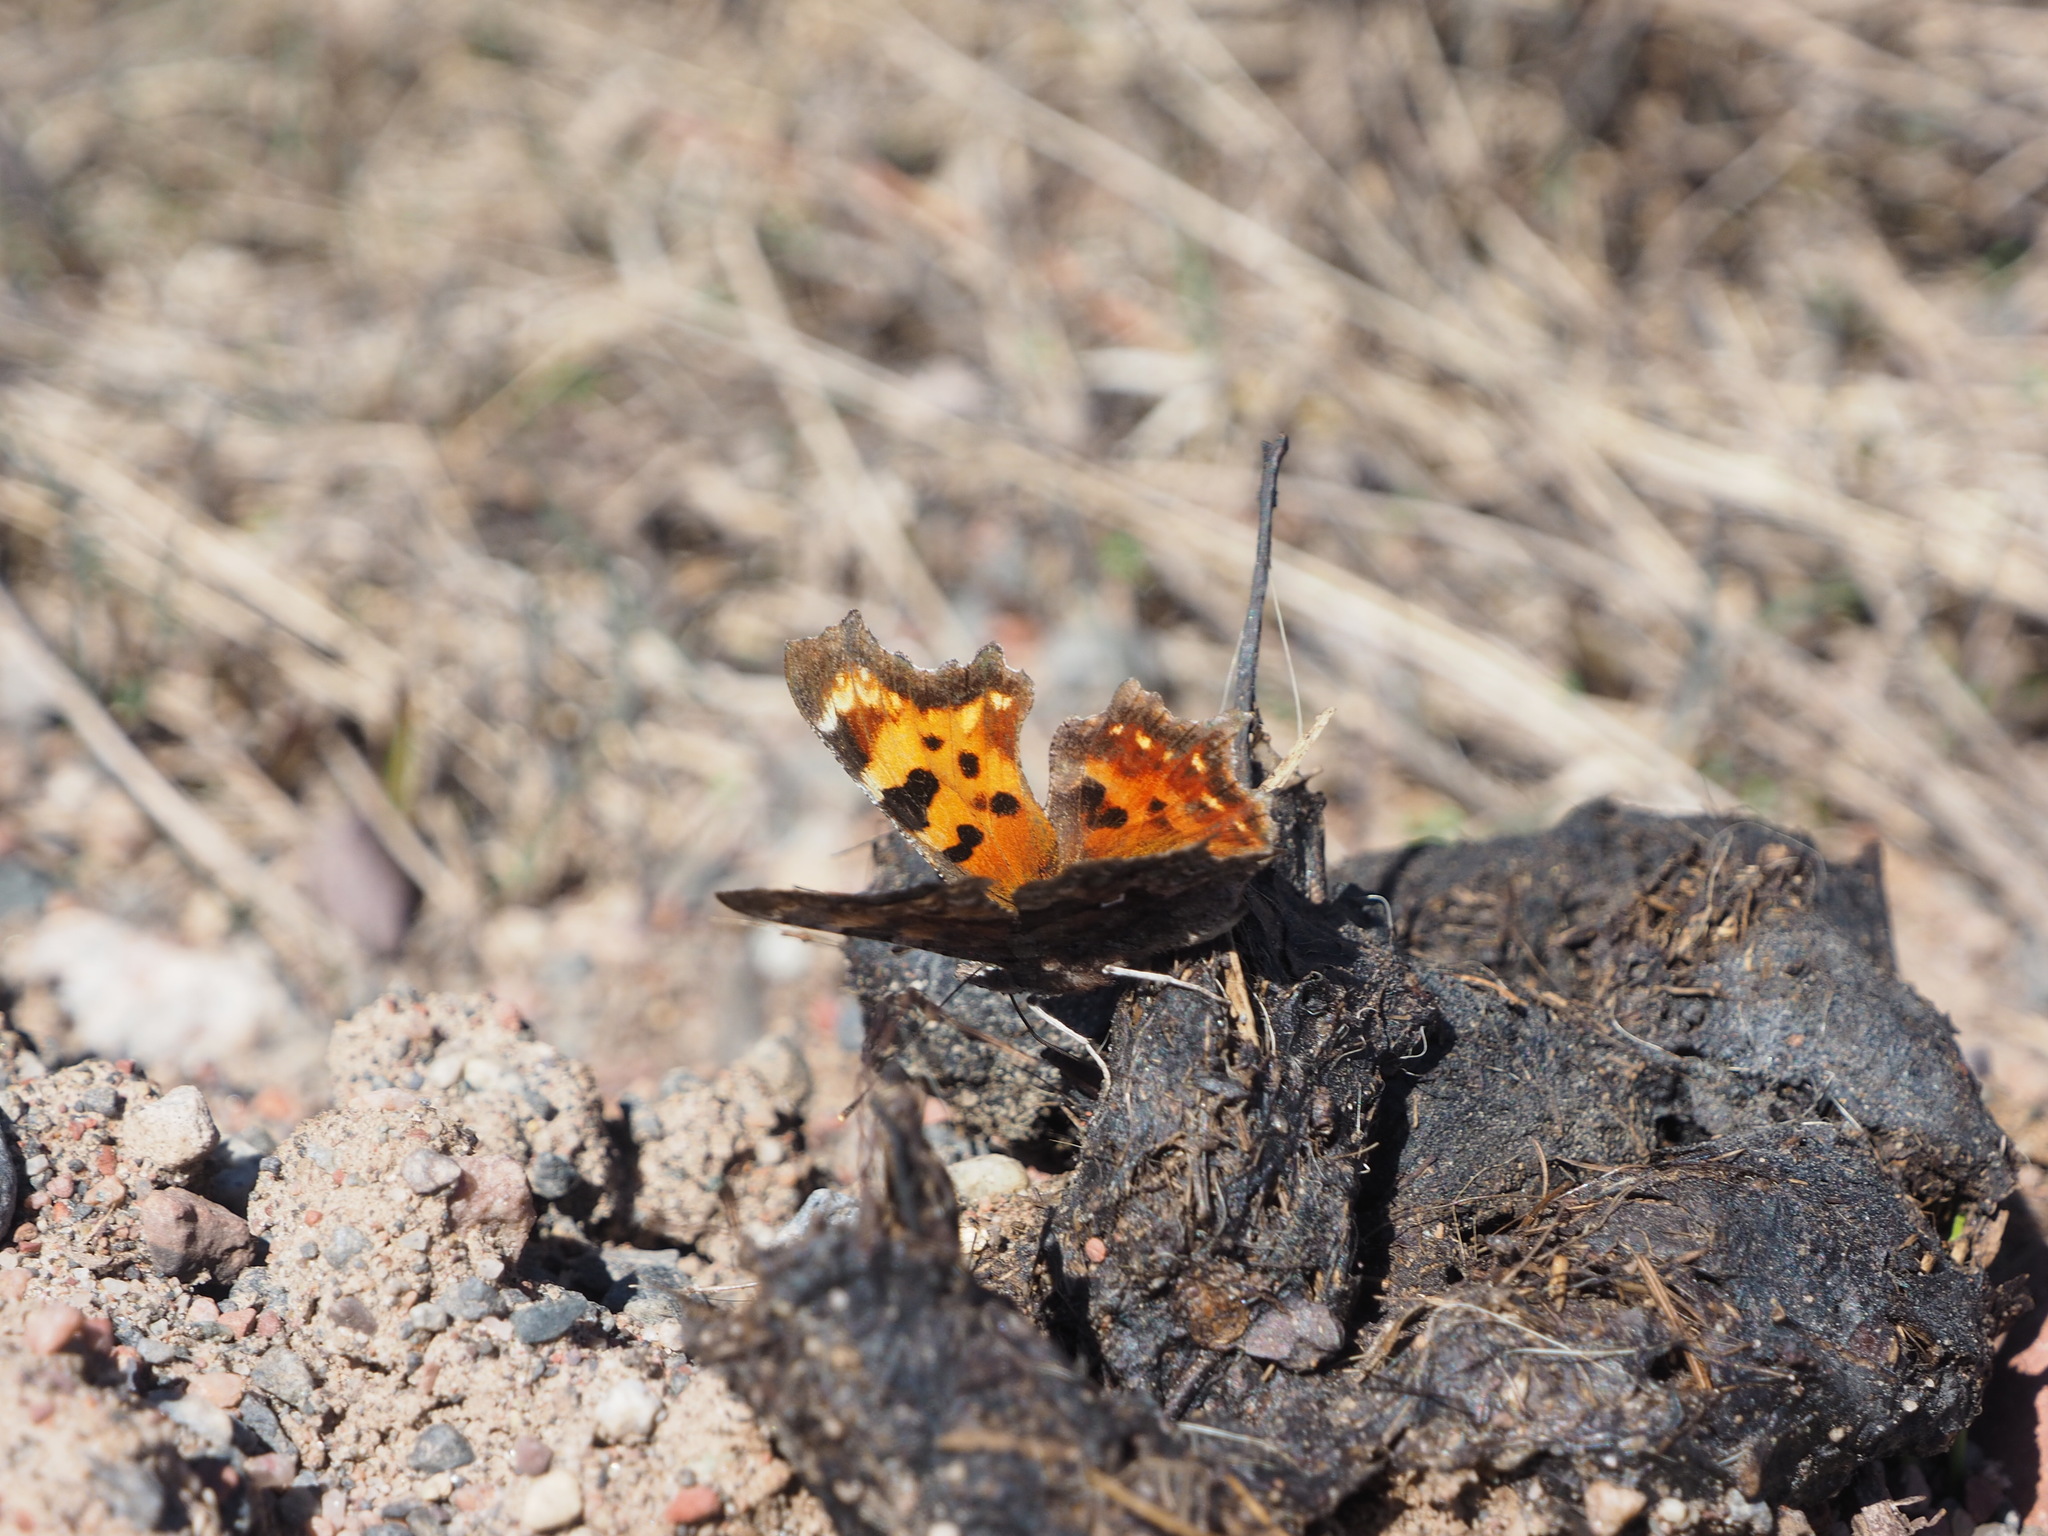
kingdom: Animalia
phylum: Arthropoda
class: Insecta
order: Lepidoptera
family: Nymphalidae
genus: Polygonia
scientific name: Polygonia faunus
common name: Green comma
